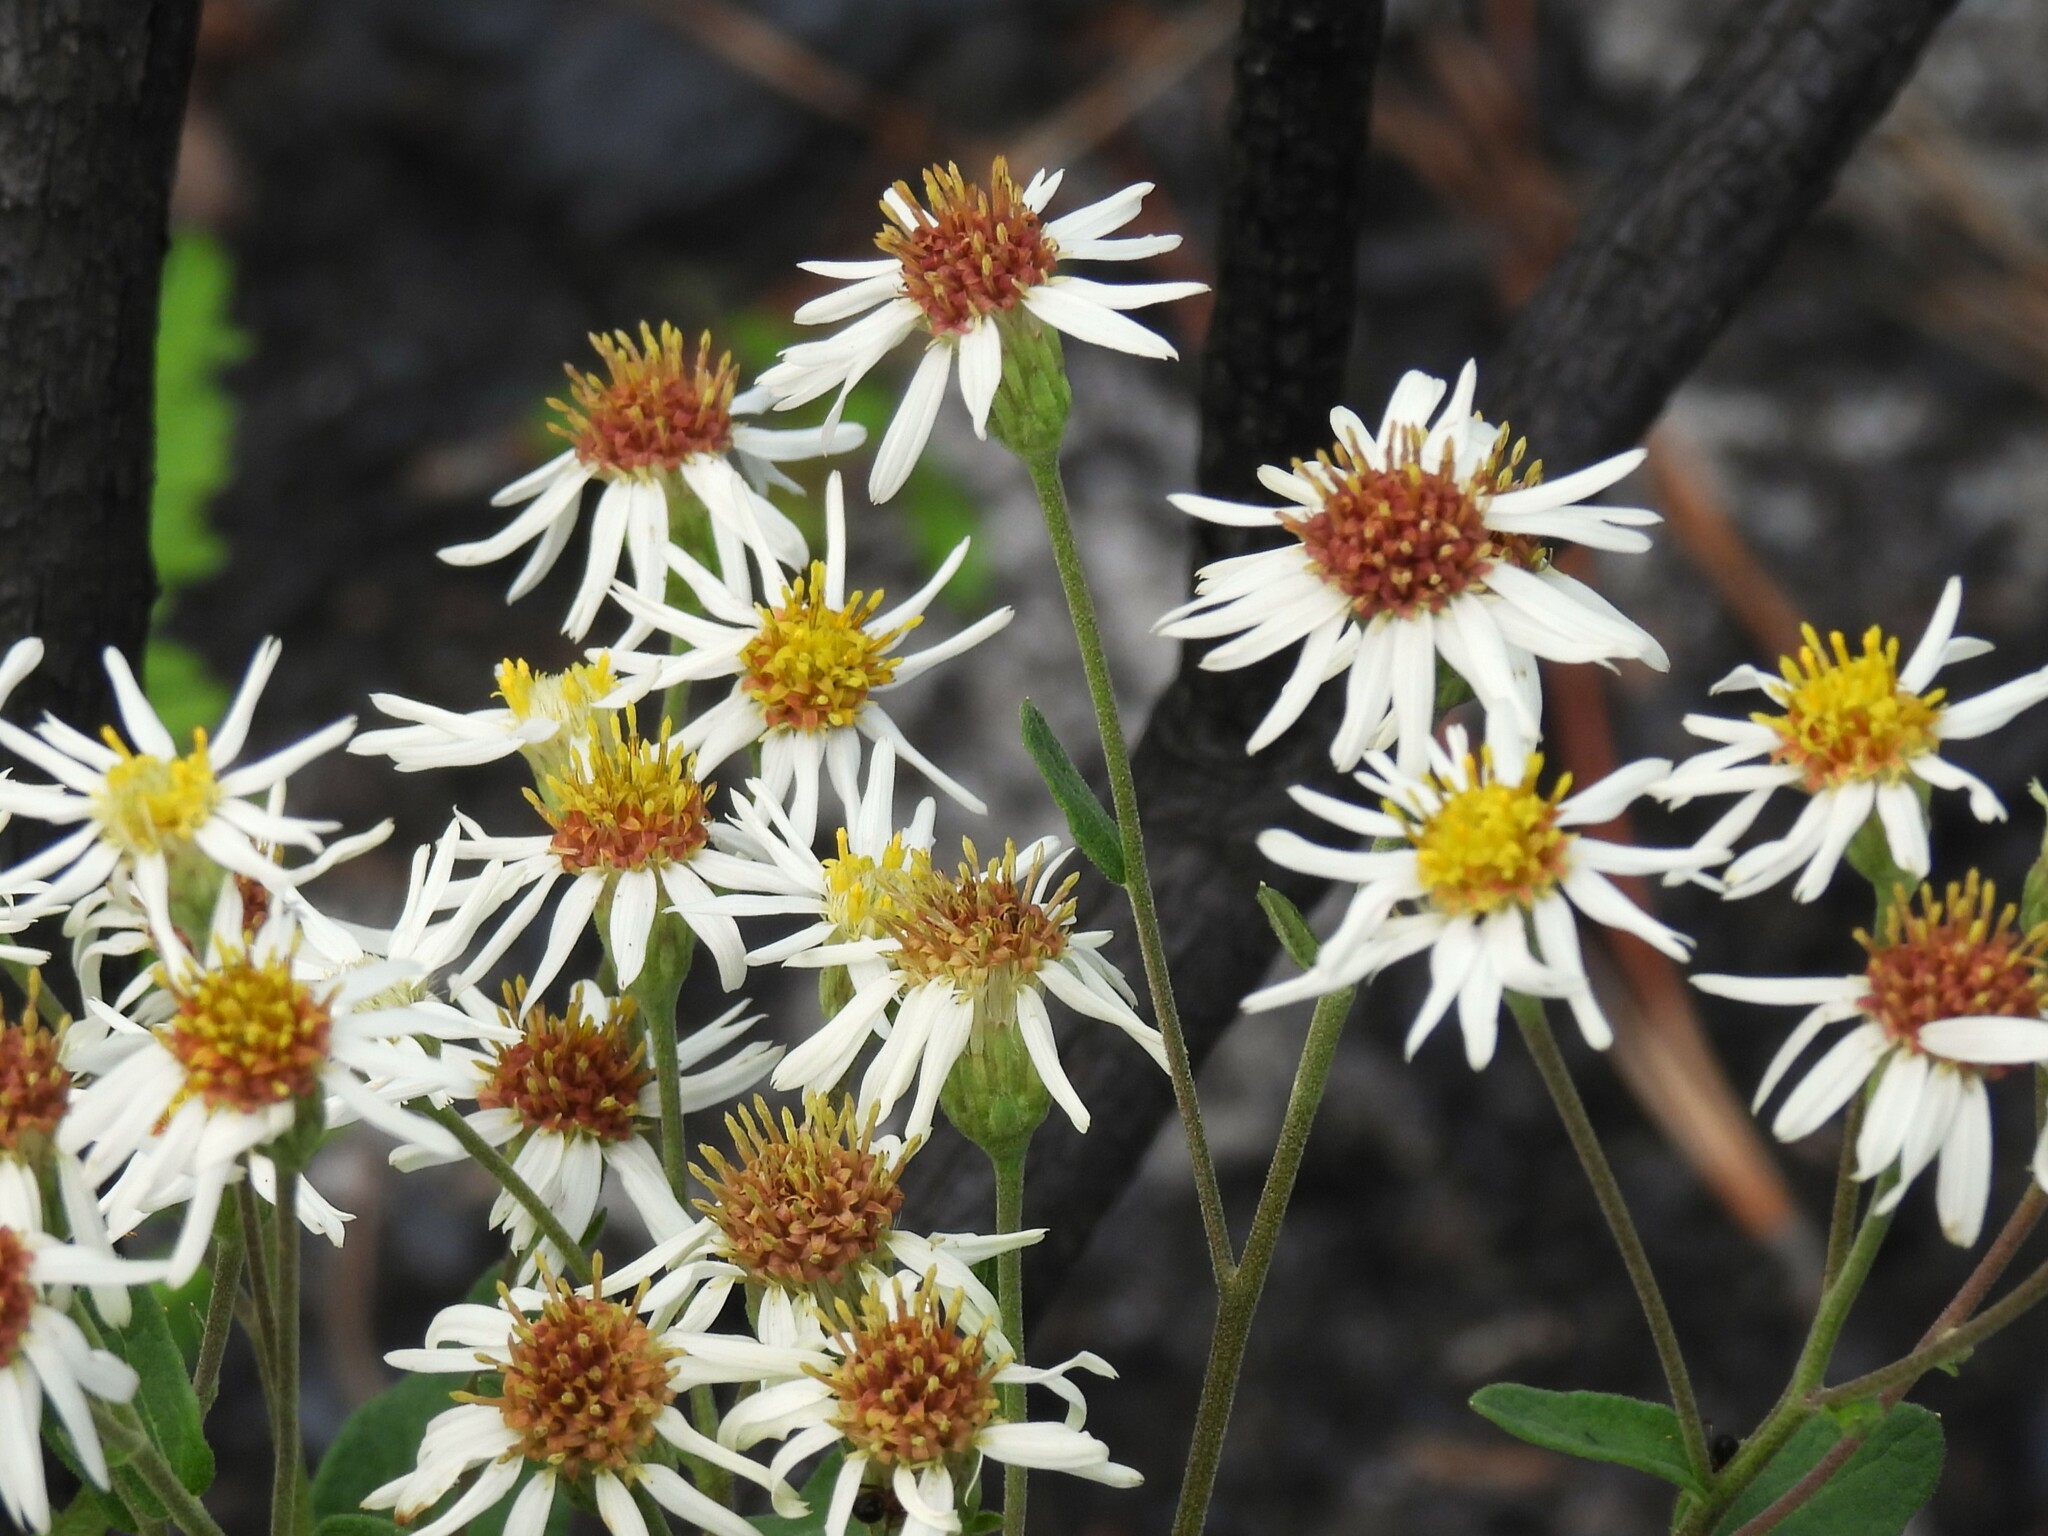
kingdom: Plantae
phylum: Tracheophyta
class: Magnoliopsida
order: Asterales
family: Asteraceae
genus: Oclemena
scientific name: Oclemena reticulata
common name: Pinebarren aster
